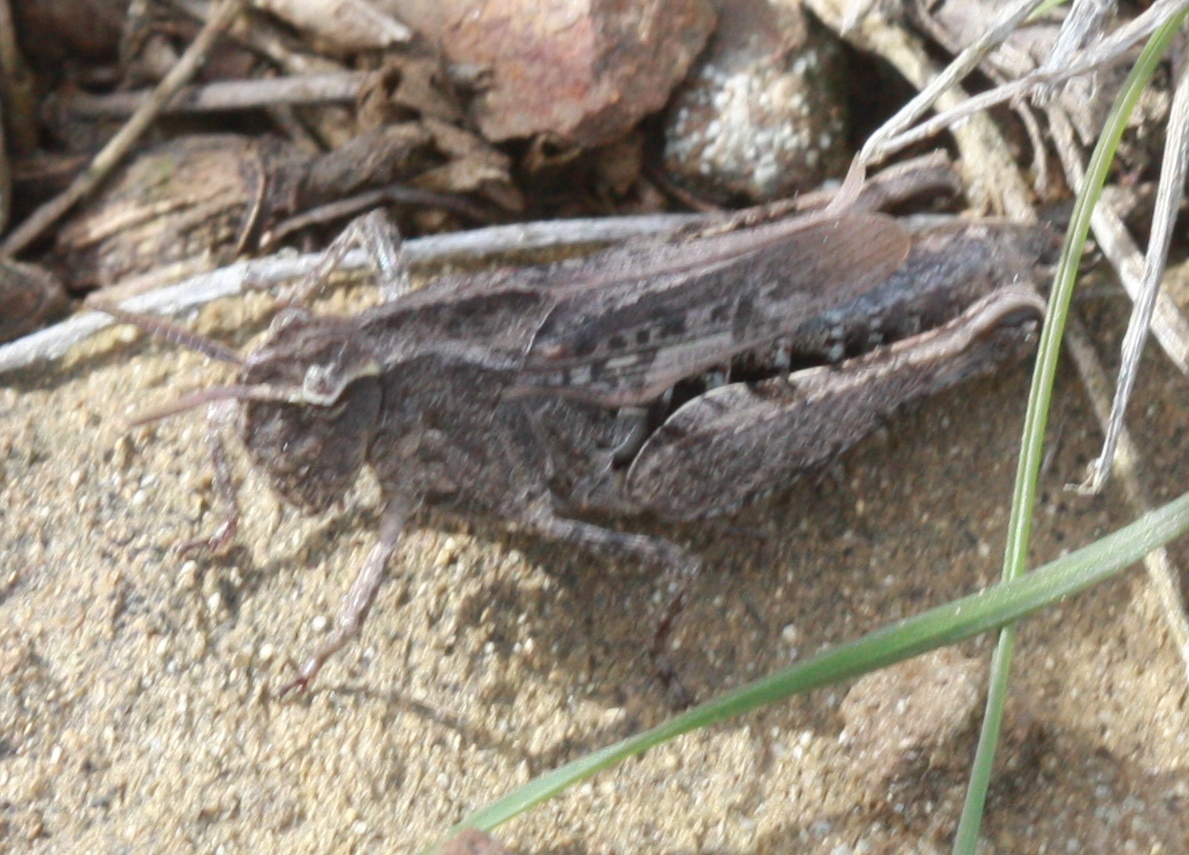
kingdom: Animalia
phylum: Arthropoda
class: Insecta
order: Orthoptera
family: Acrididae
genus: Chimarocephala
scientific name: Chimarocephala pacifica
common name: Painted meadow grasshopper
